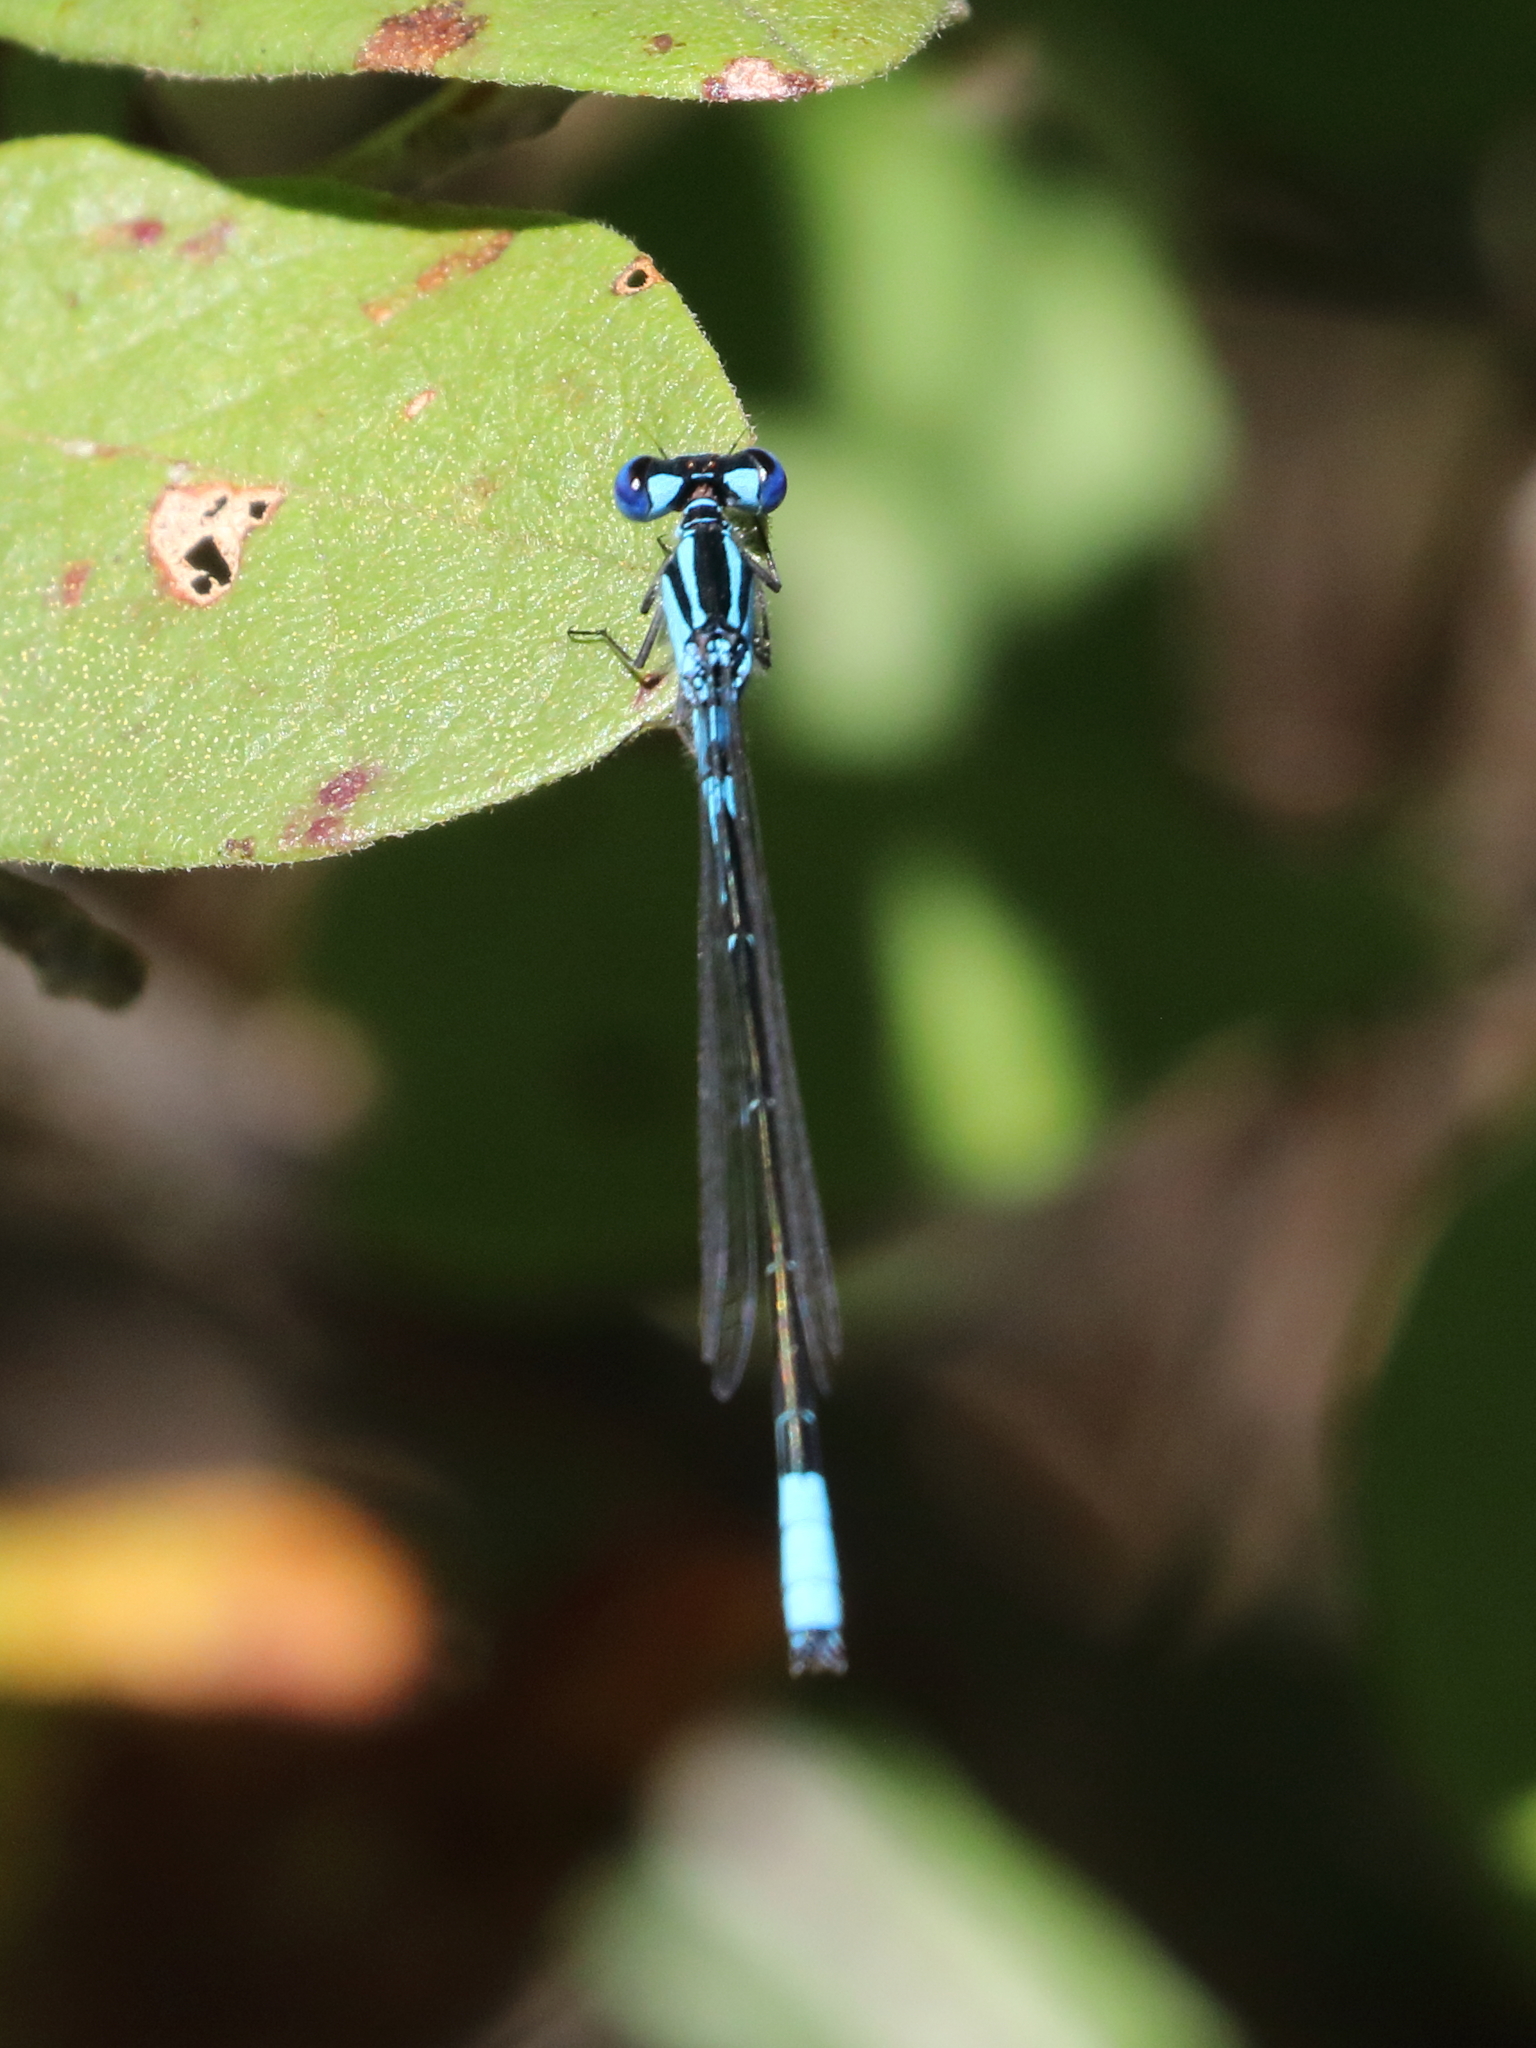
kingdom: Animalia
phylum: Arthropoda
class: Insecta
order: Odonata
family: Coenagrionidae
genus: Enallagma
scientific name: Enallagma aspersum
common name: Azure bluet
